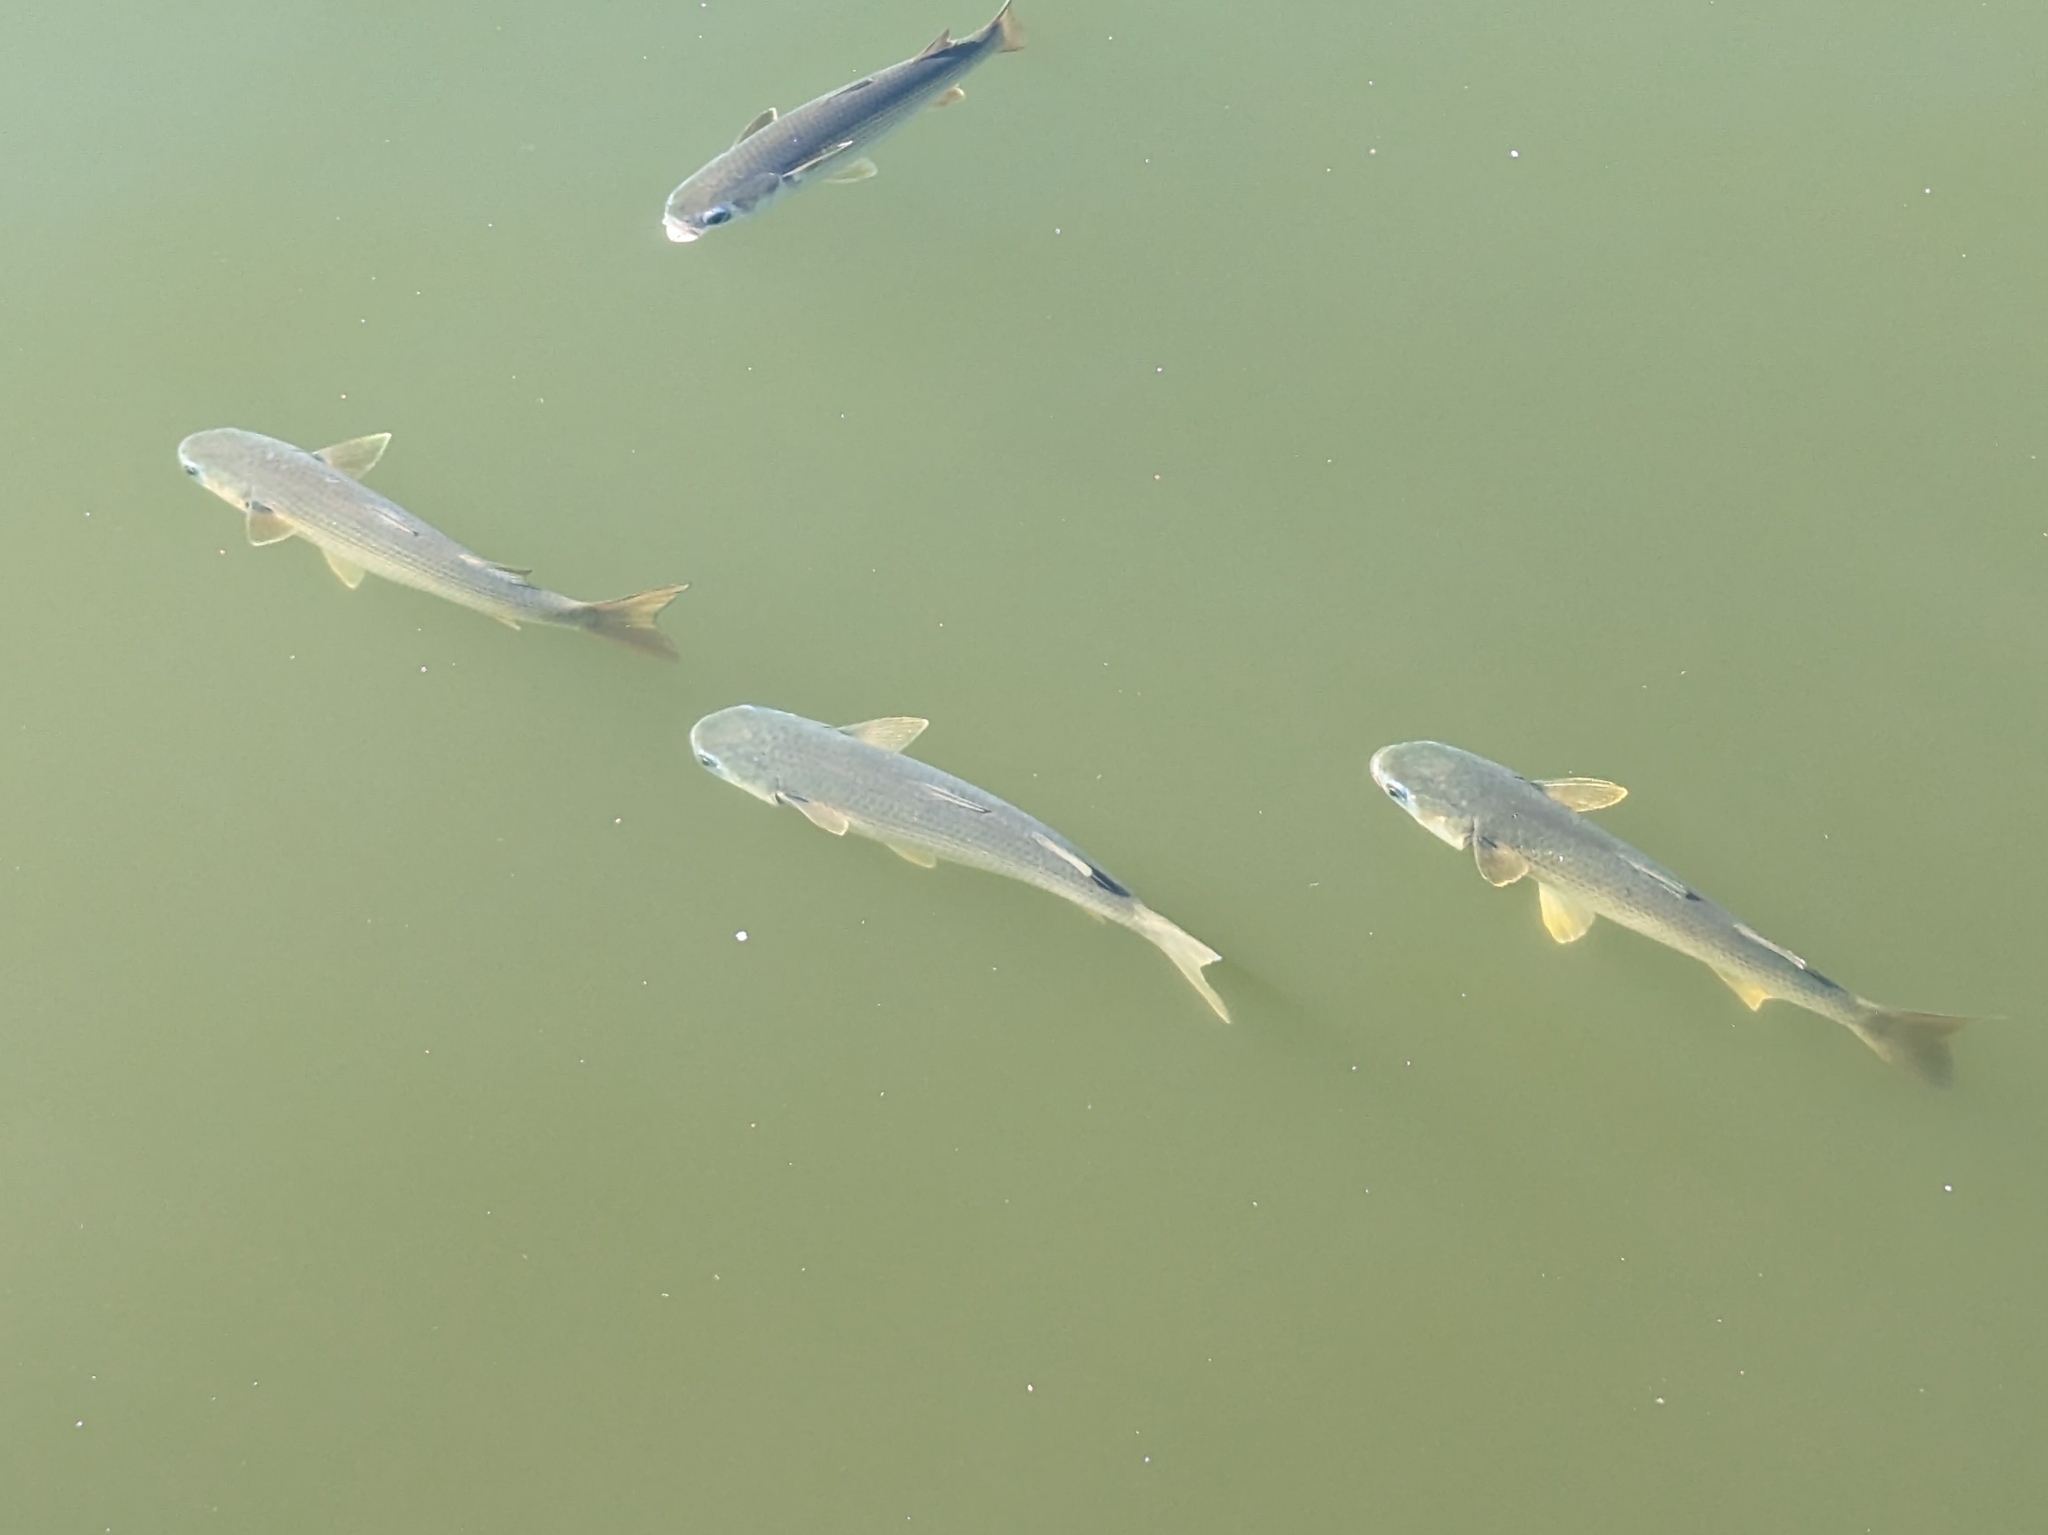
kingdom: Animalia
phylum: Chordata
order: Mugiliformes
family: Mugilidae
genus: Mugil
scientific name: Mugil cephalus
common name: Grey mullet
